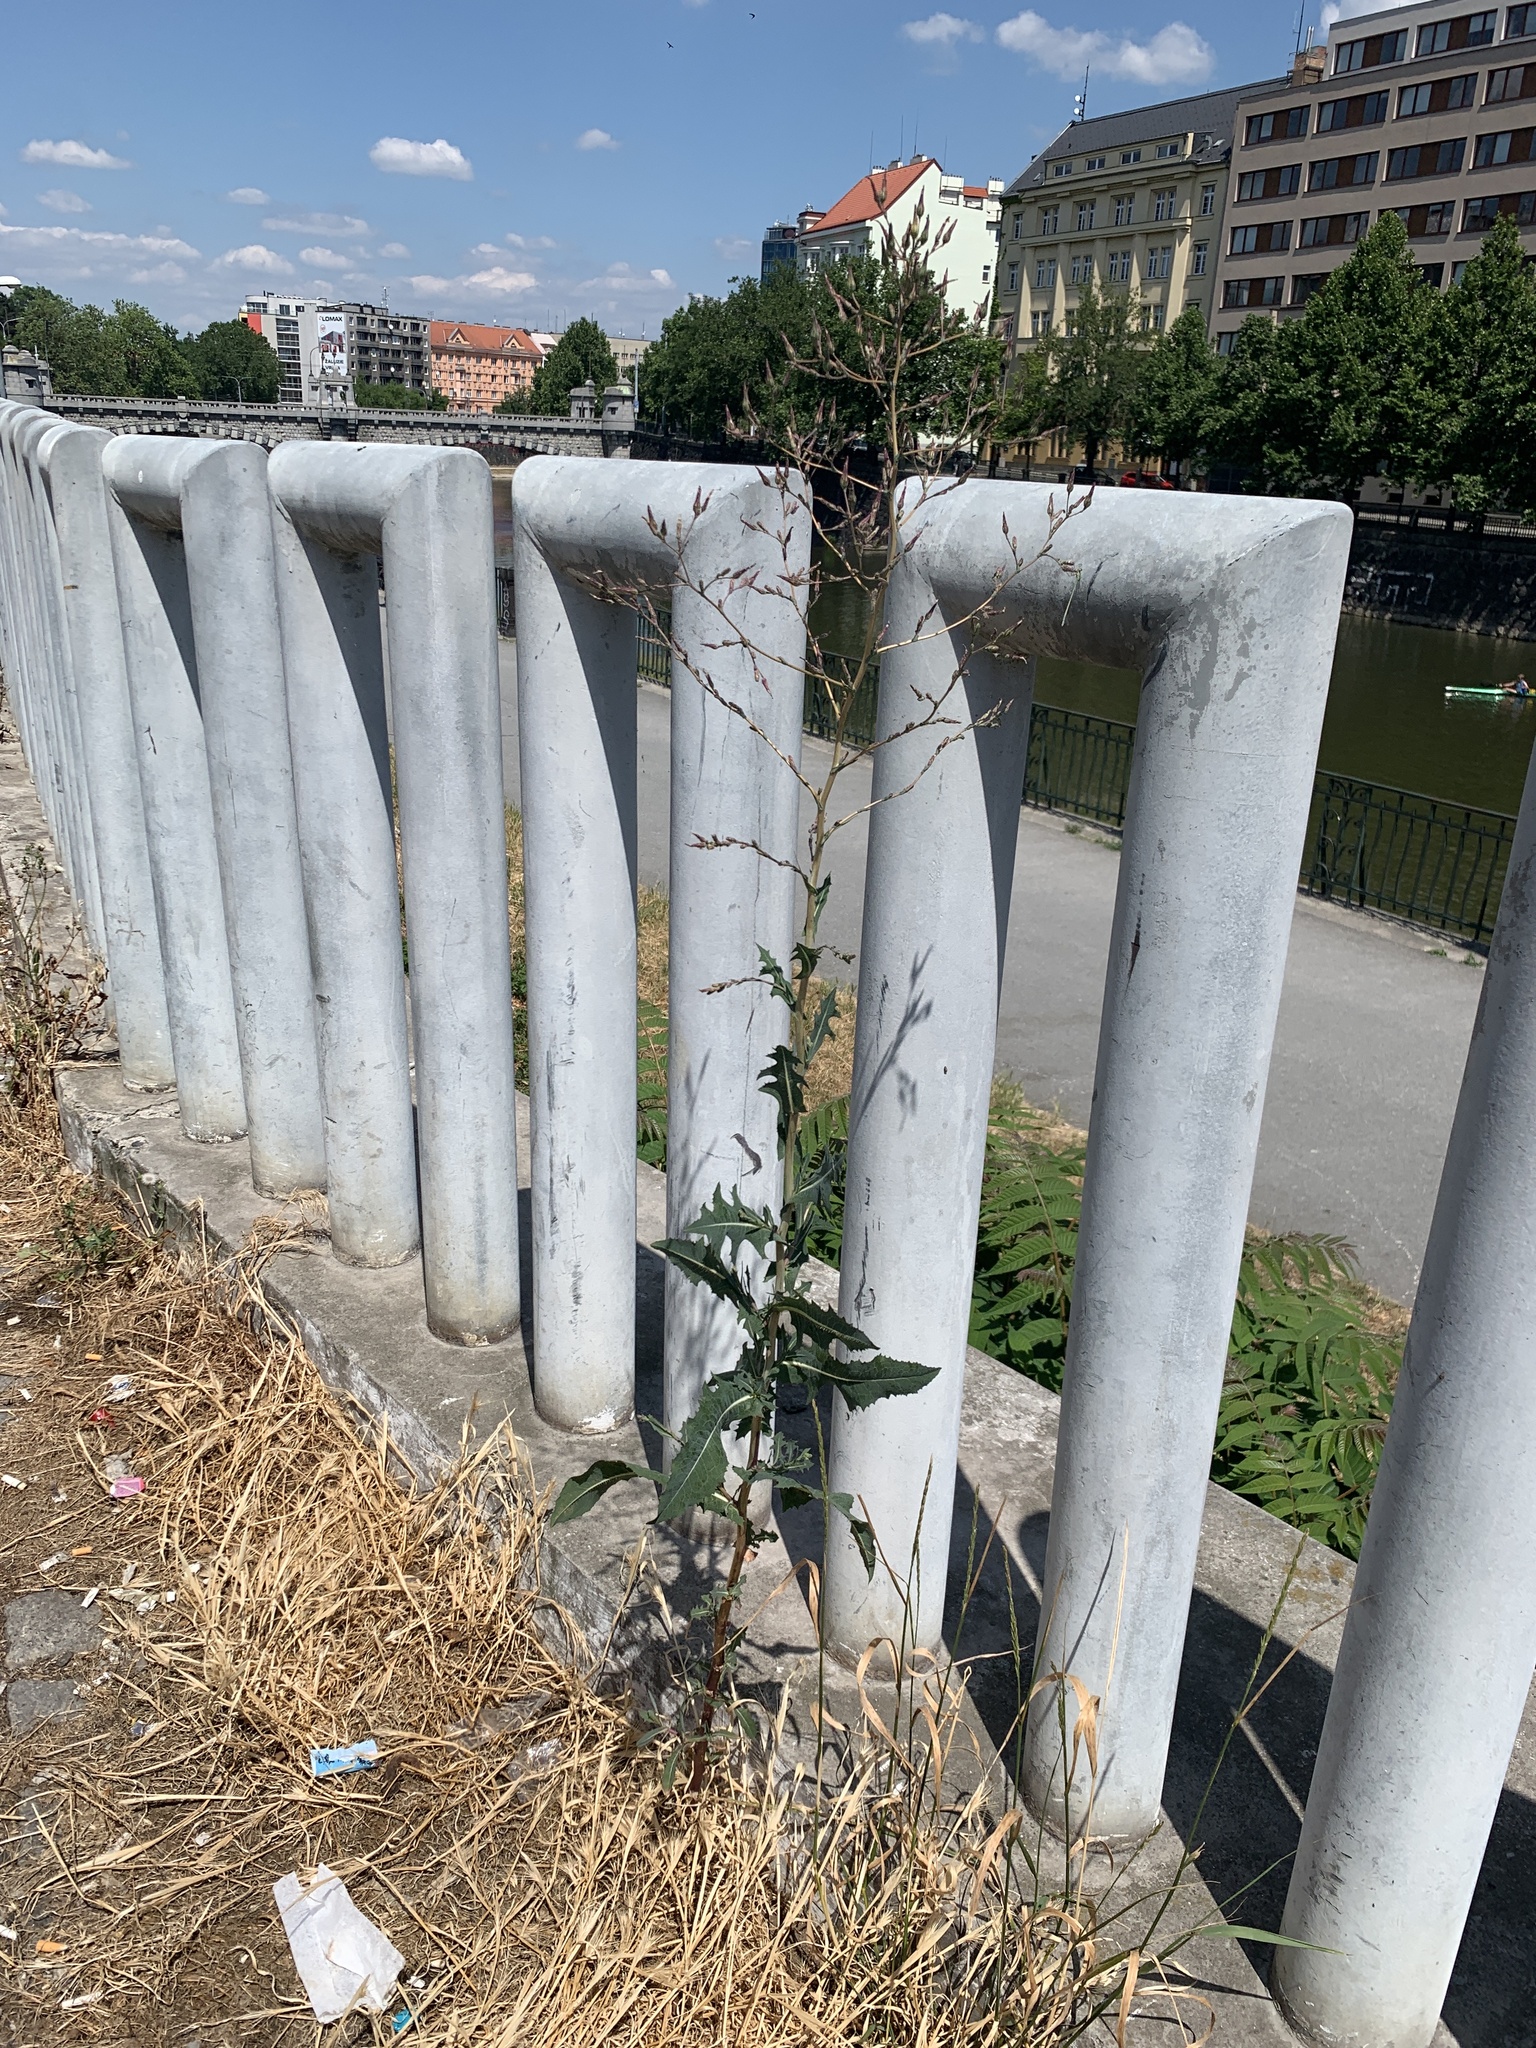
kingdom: Plantae
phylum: Tracheophyta
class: Magnoliopsida
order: Asterales
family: Asteraceae
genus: Lactuca
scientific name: Lactuca serriola
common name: Prickly lettuce
